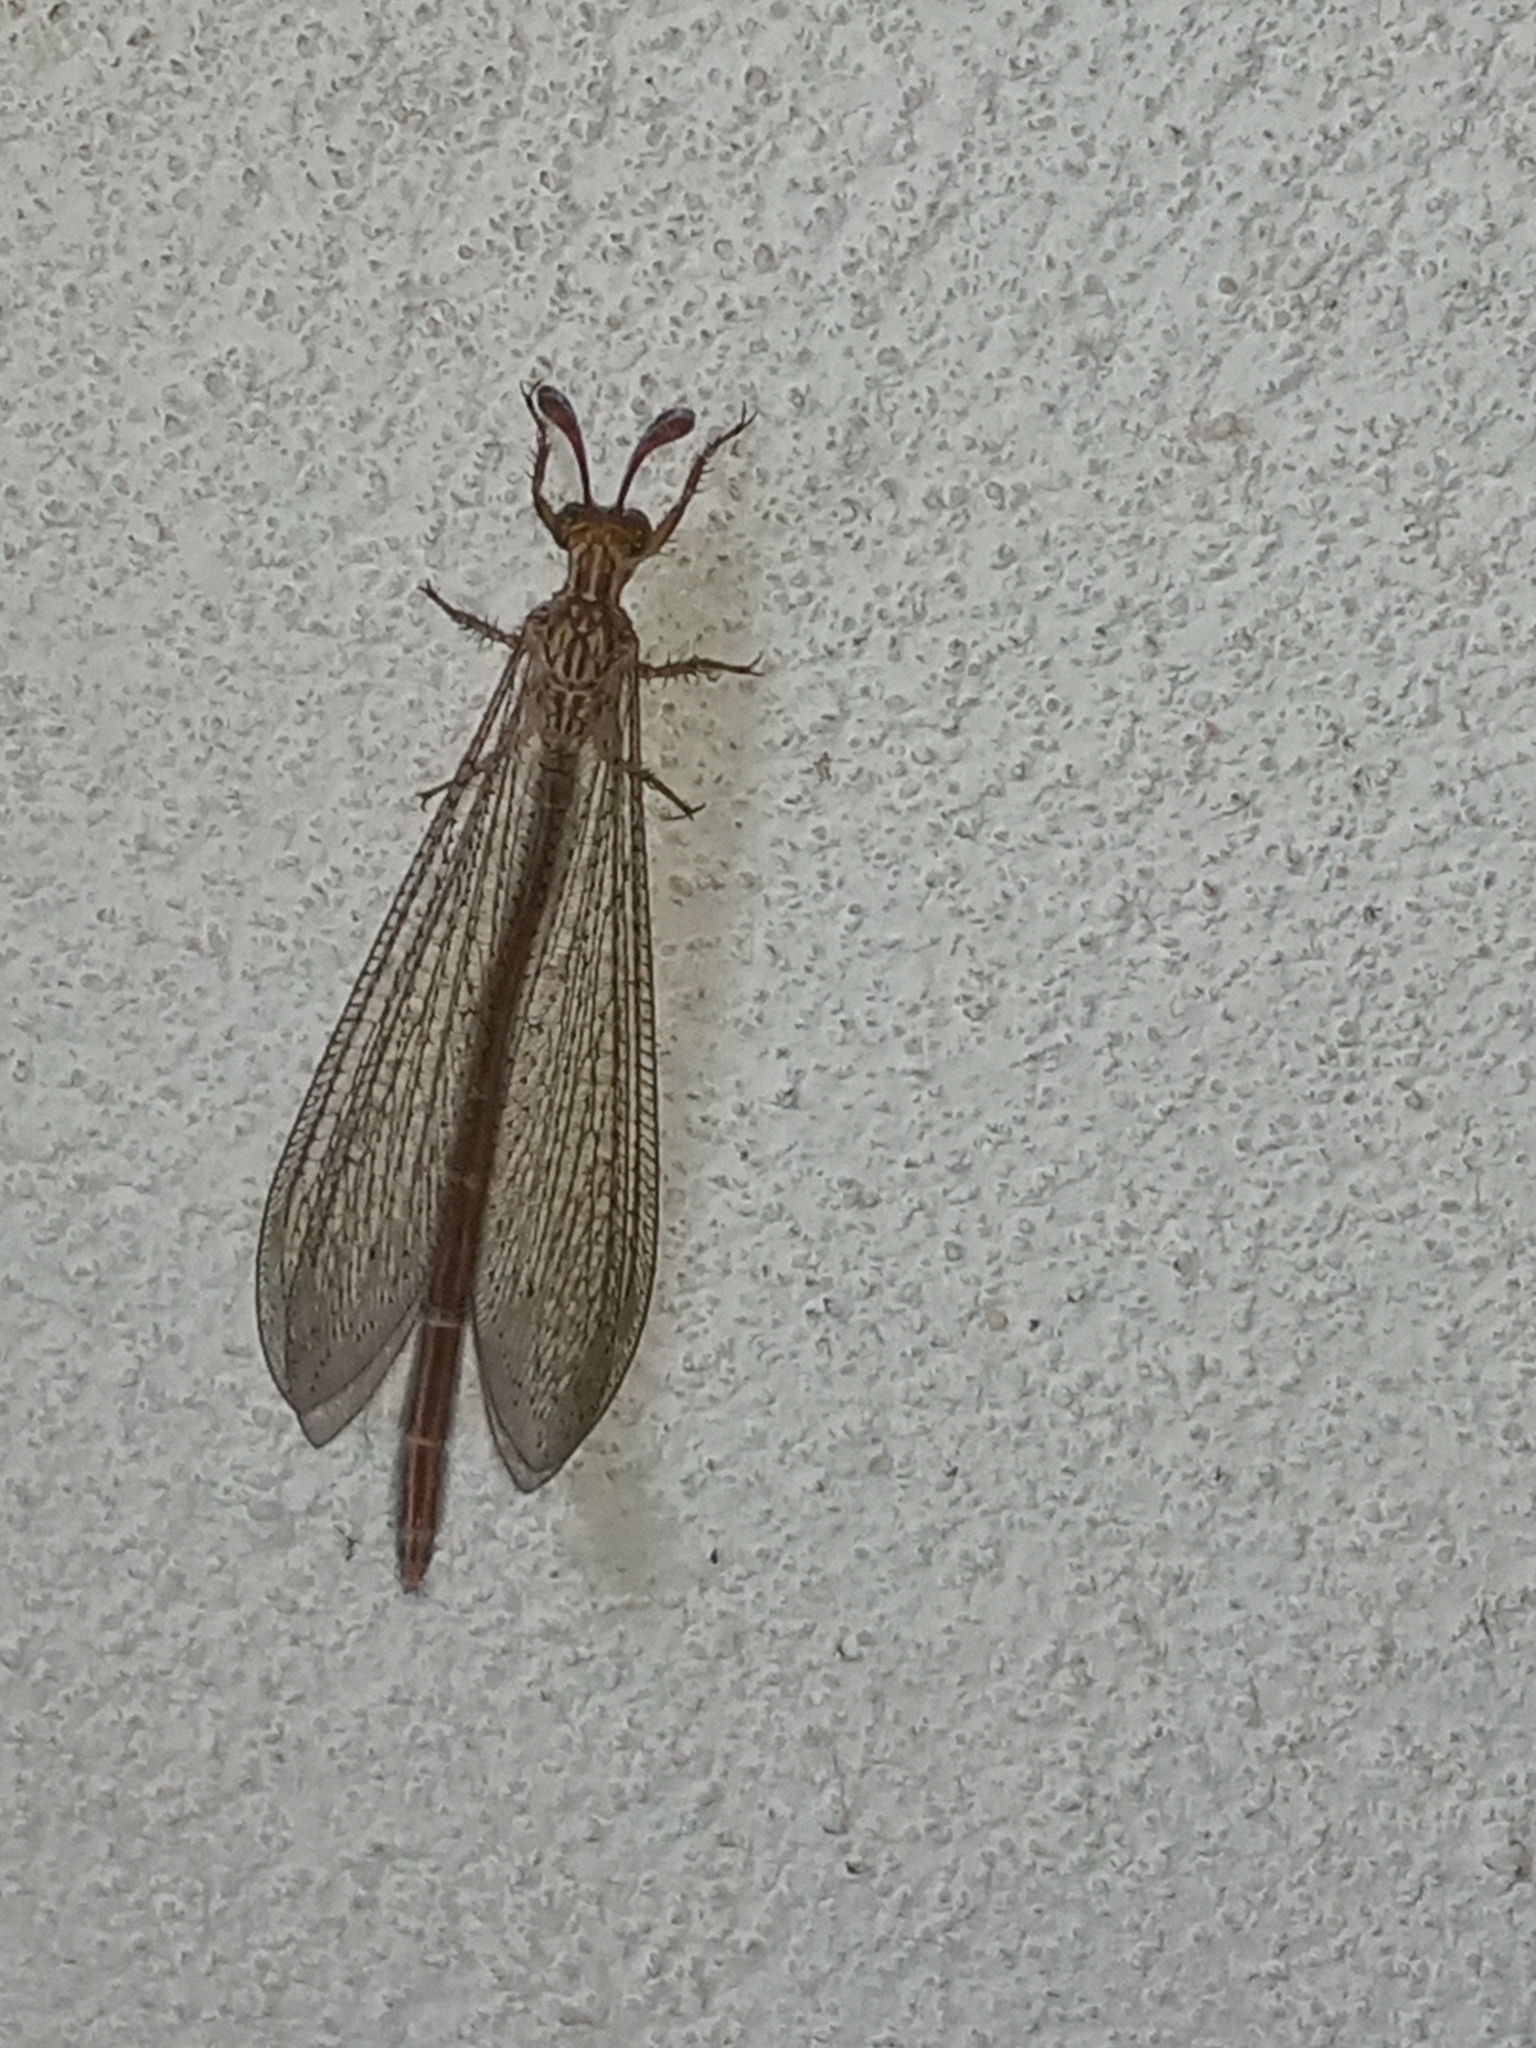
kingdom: Animalia
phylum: Arthropoda
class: Insecta
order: Neuroptera
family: Myrmeleontidae
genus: Argentoleon
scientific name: Argentoleon irrigatus
